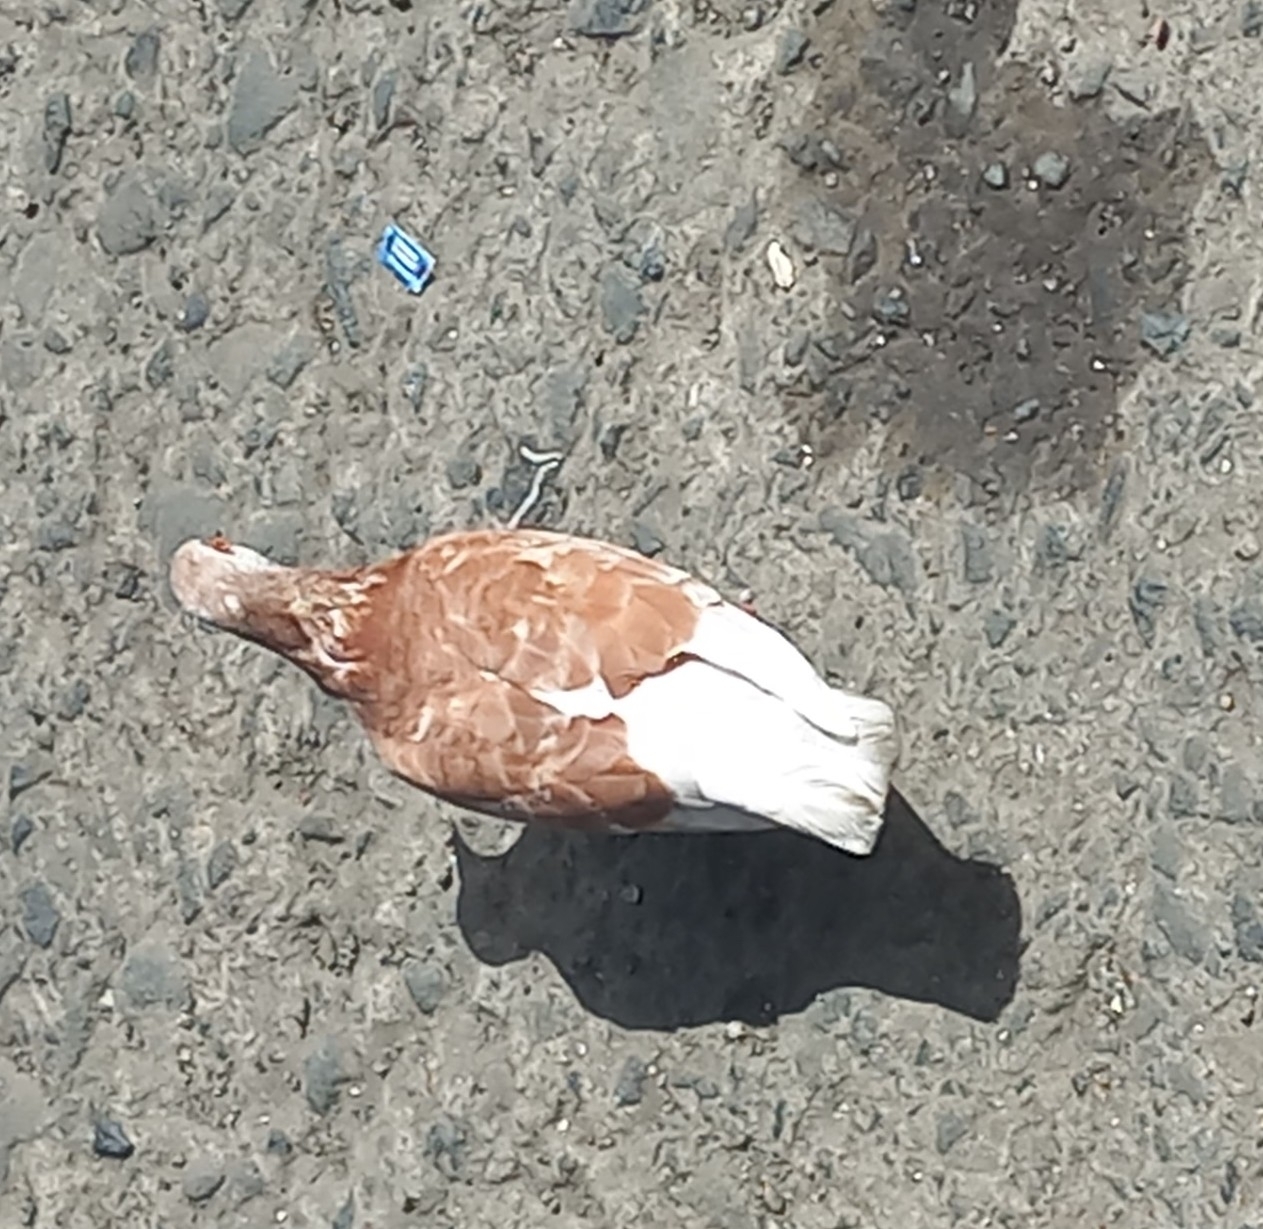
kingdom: Animalia
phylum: Chordata
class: Aves
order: Columbiformes
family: Columbidae
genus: Columba
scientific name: Columba livia
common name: Rock pigeon
